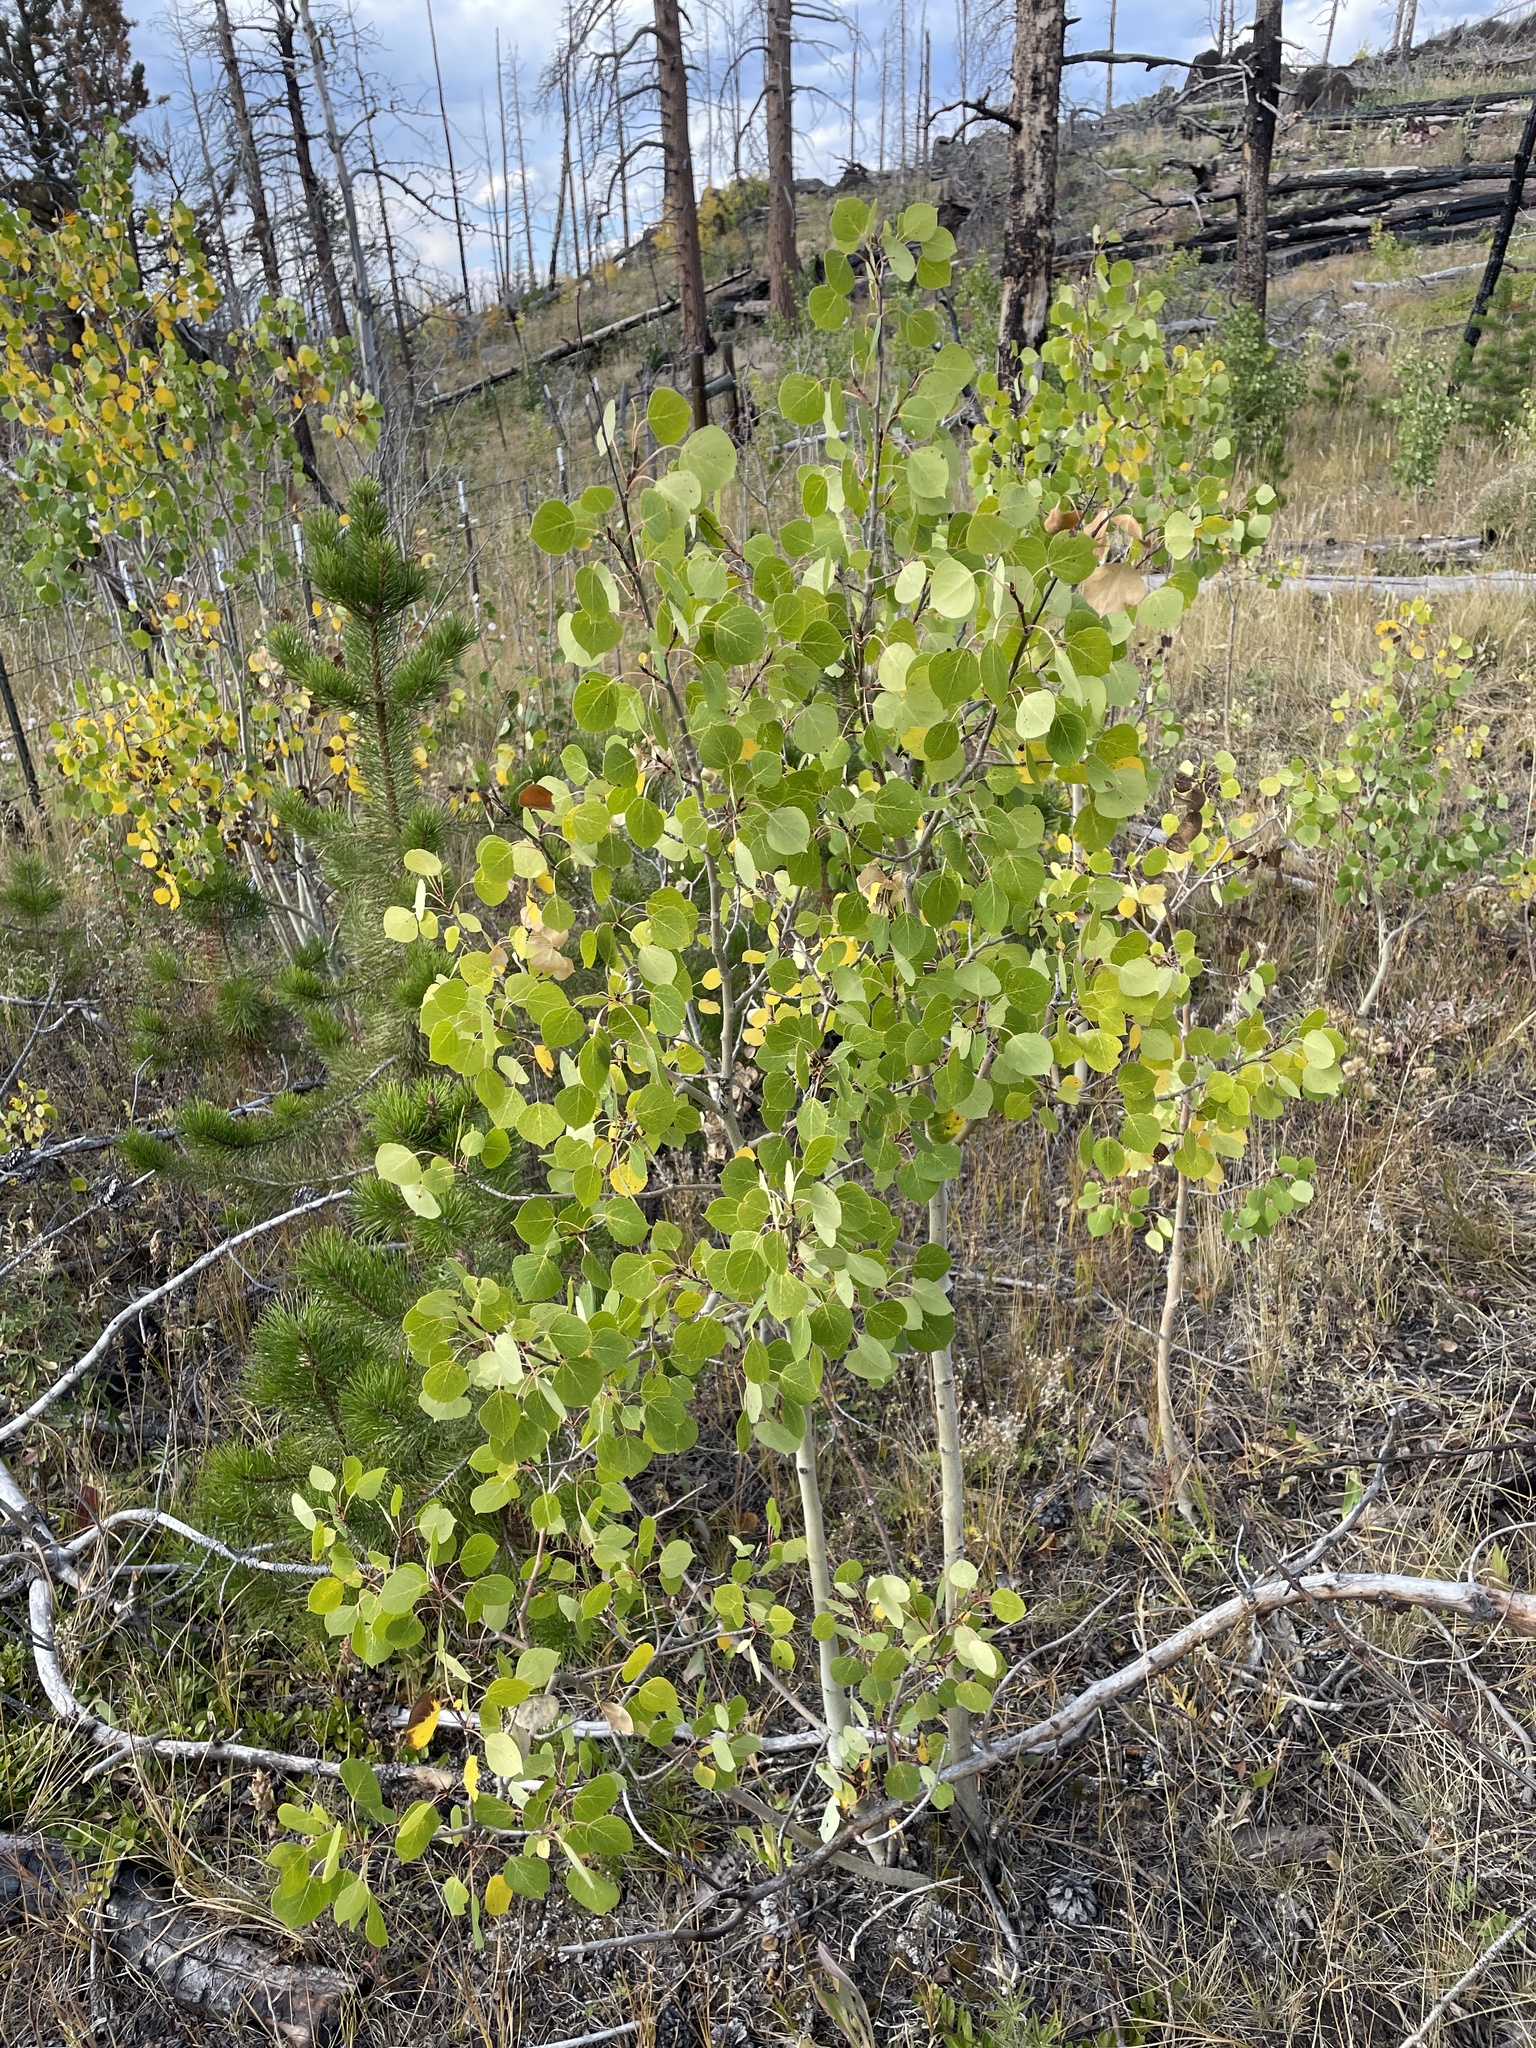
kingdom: Plantae
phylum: Tracheophyta
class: Magnoliopsida
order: Malpighiales
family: Salicaceae
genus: Populus
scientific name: Populus tremuloides
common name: Quaking aspen
